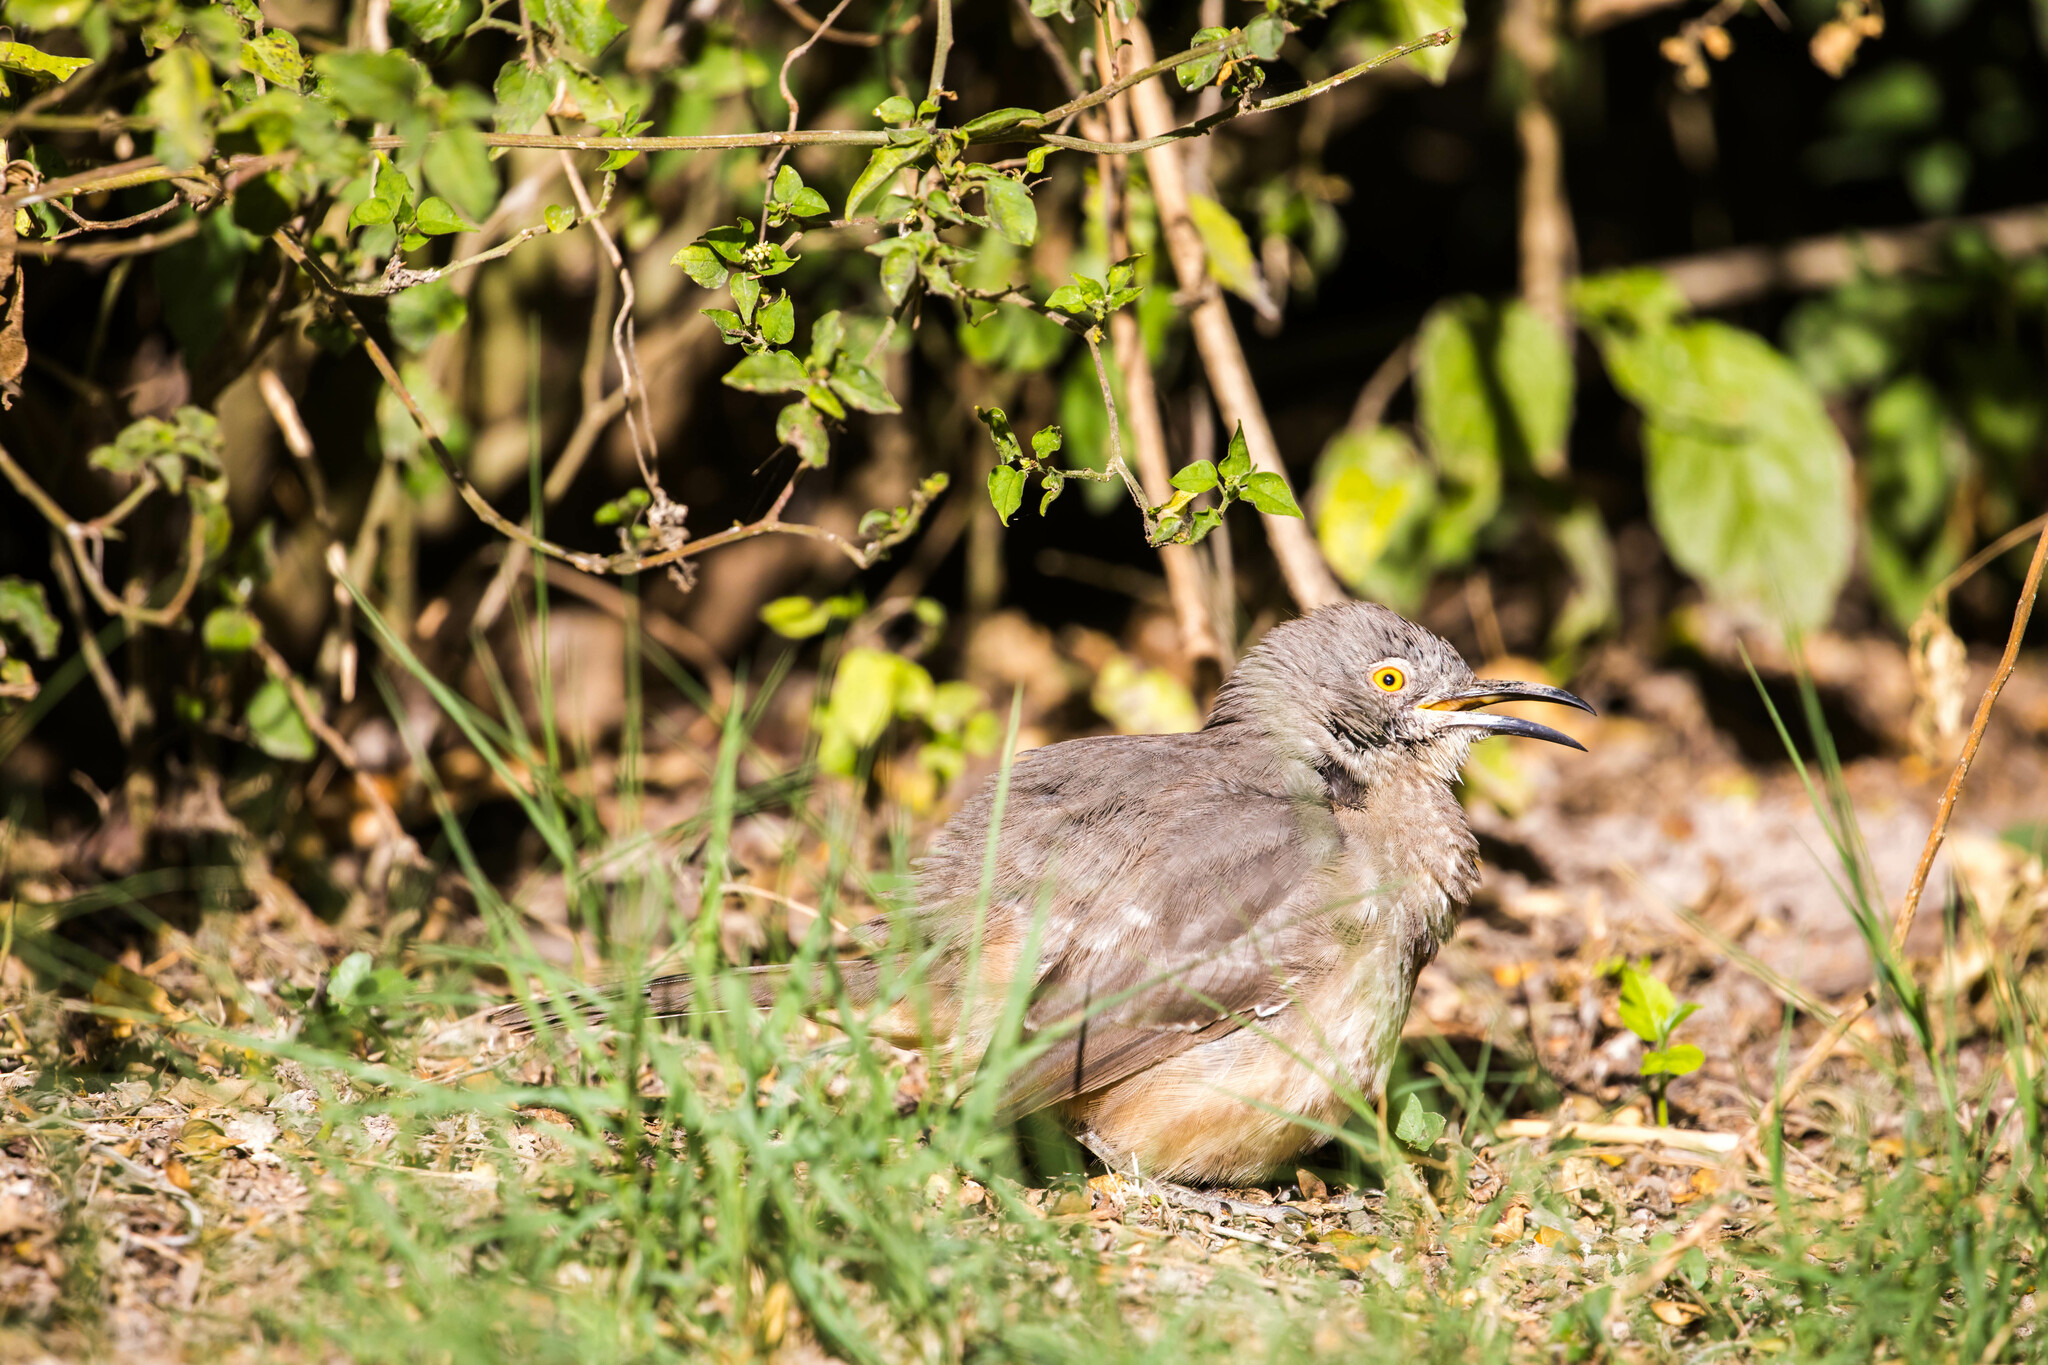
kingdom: Animalia
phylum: Chordata
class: Aves
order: Passeriformes
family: Mimidae
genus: Toxostoma
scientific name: Toxostoma curvirostre
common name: Curve-billed thrasher
